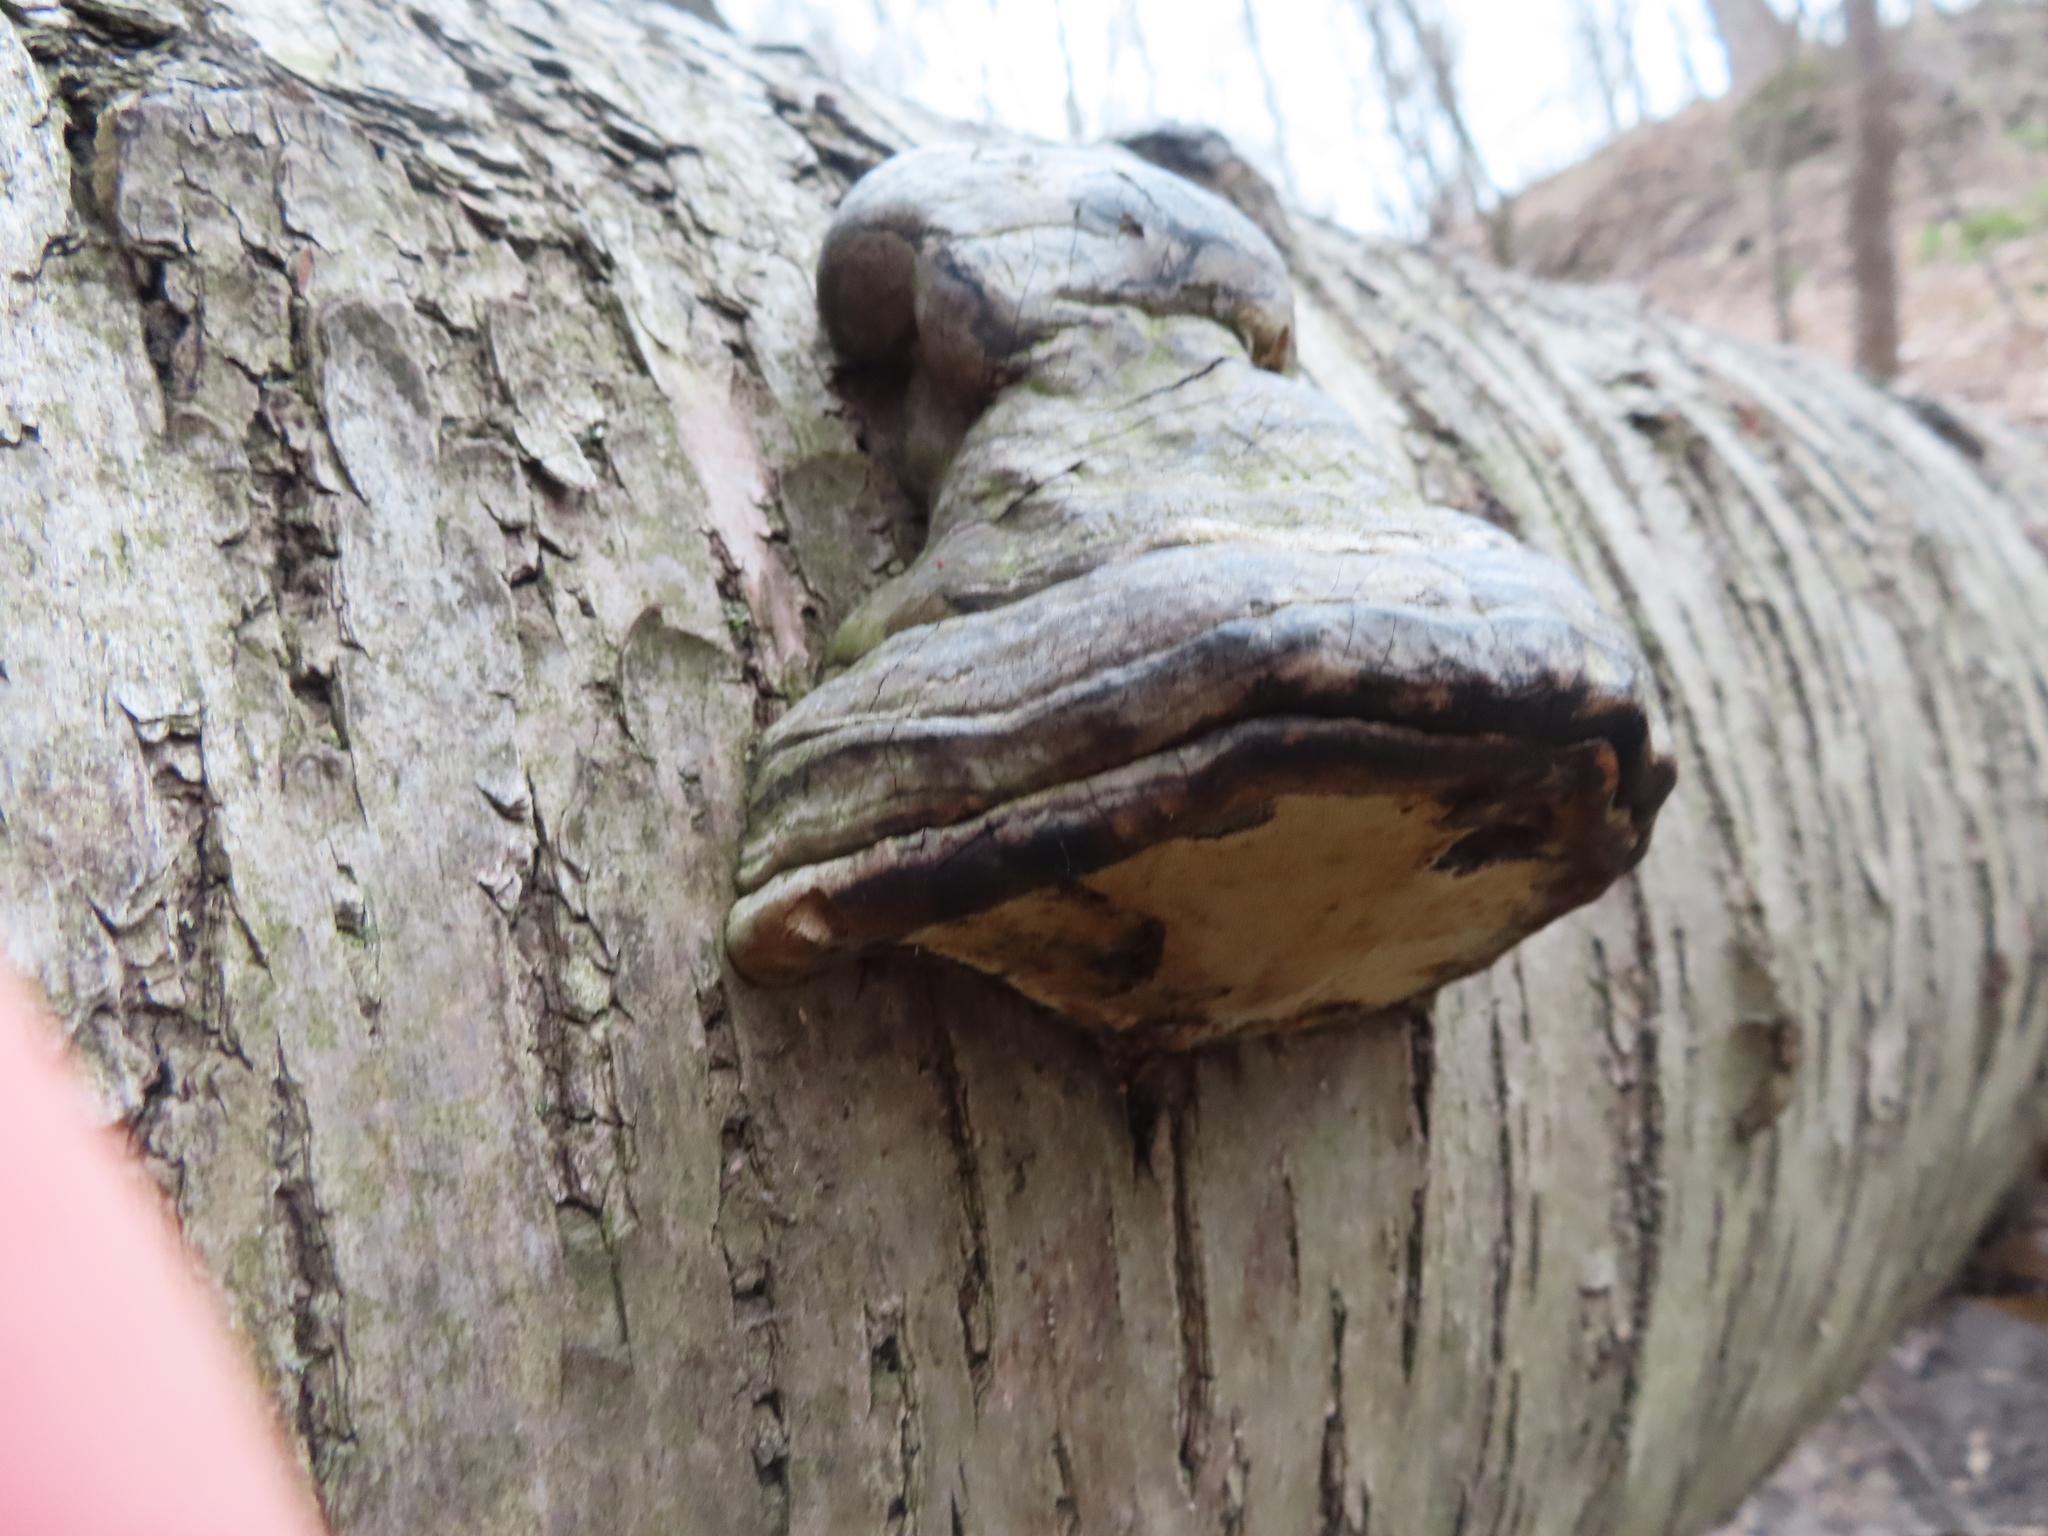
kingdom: Fungi
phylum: Basidiomycota
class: Agaricomycetes
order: Polyporales
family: Polyporaceae
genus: Fomes
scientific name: Fomes fomentarius
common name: Hoof fungus
